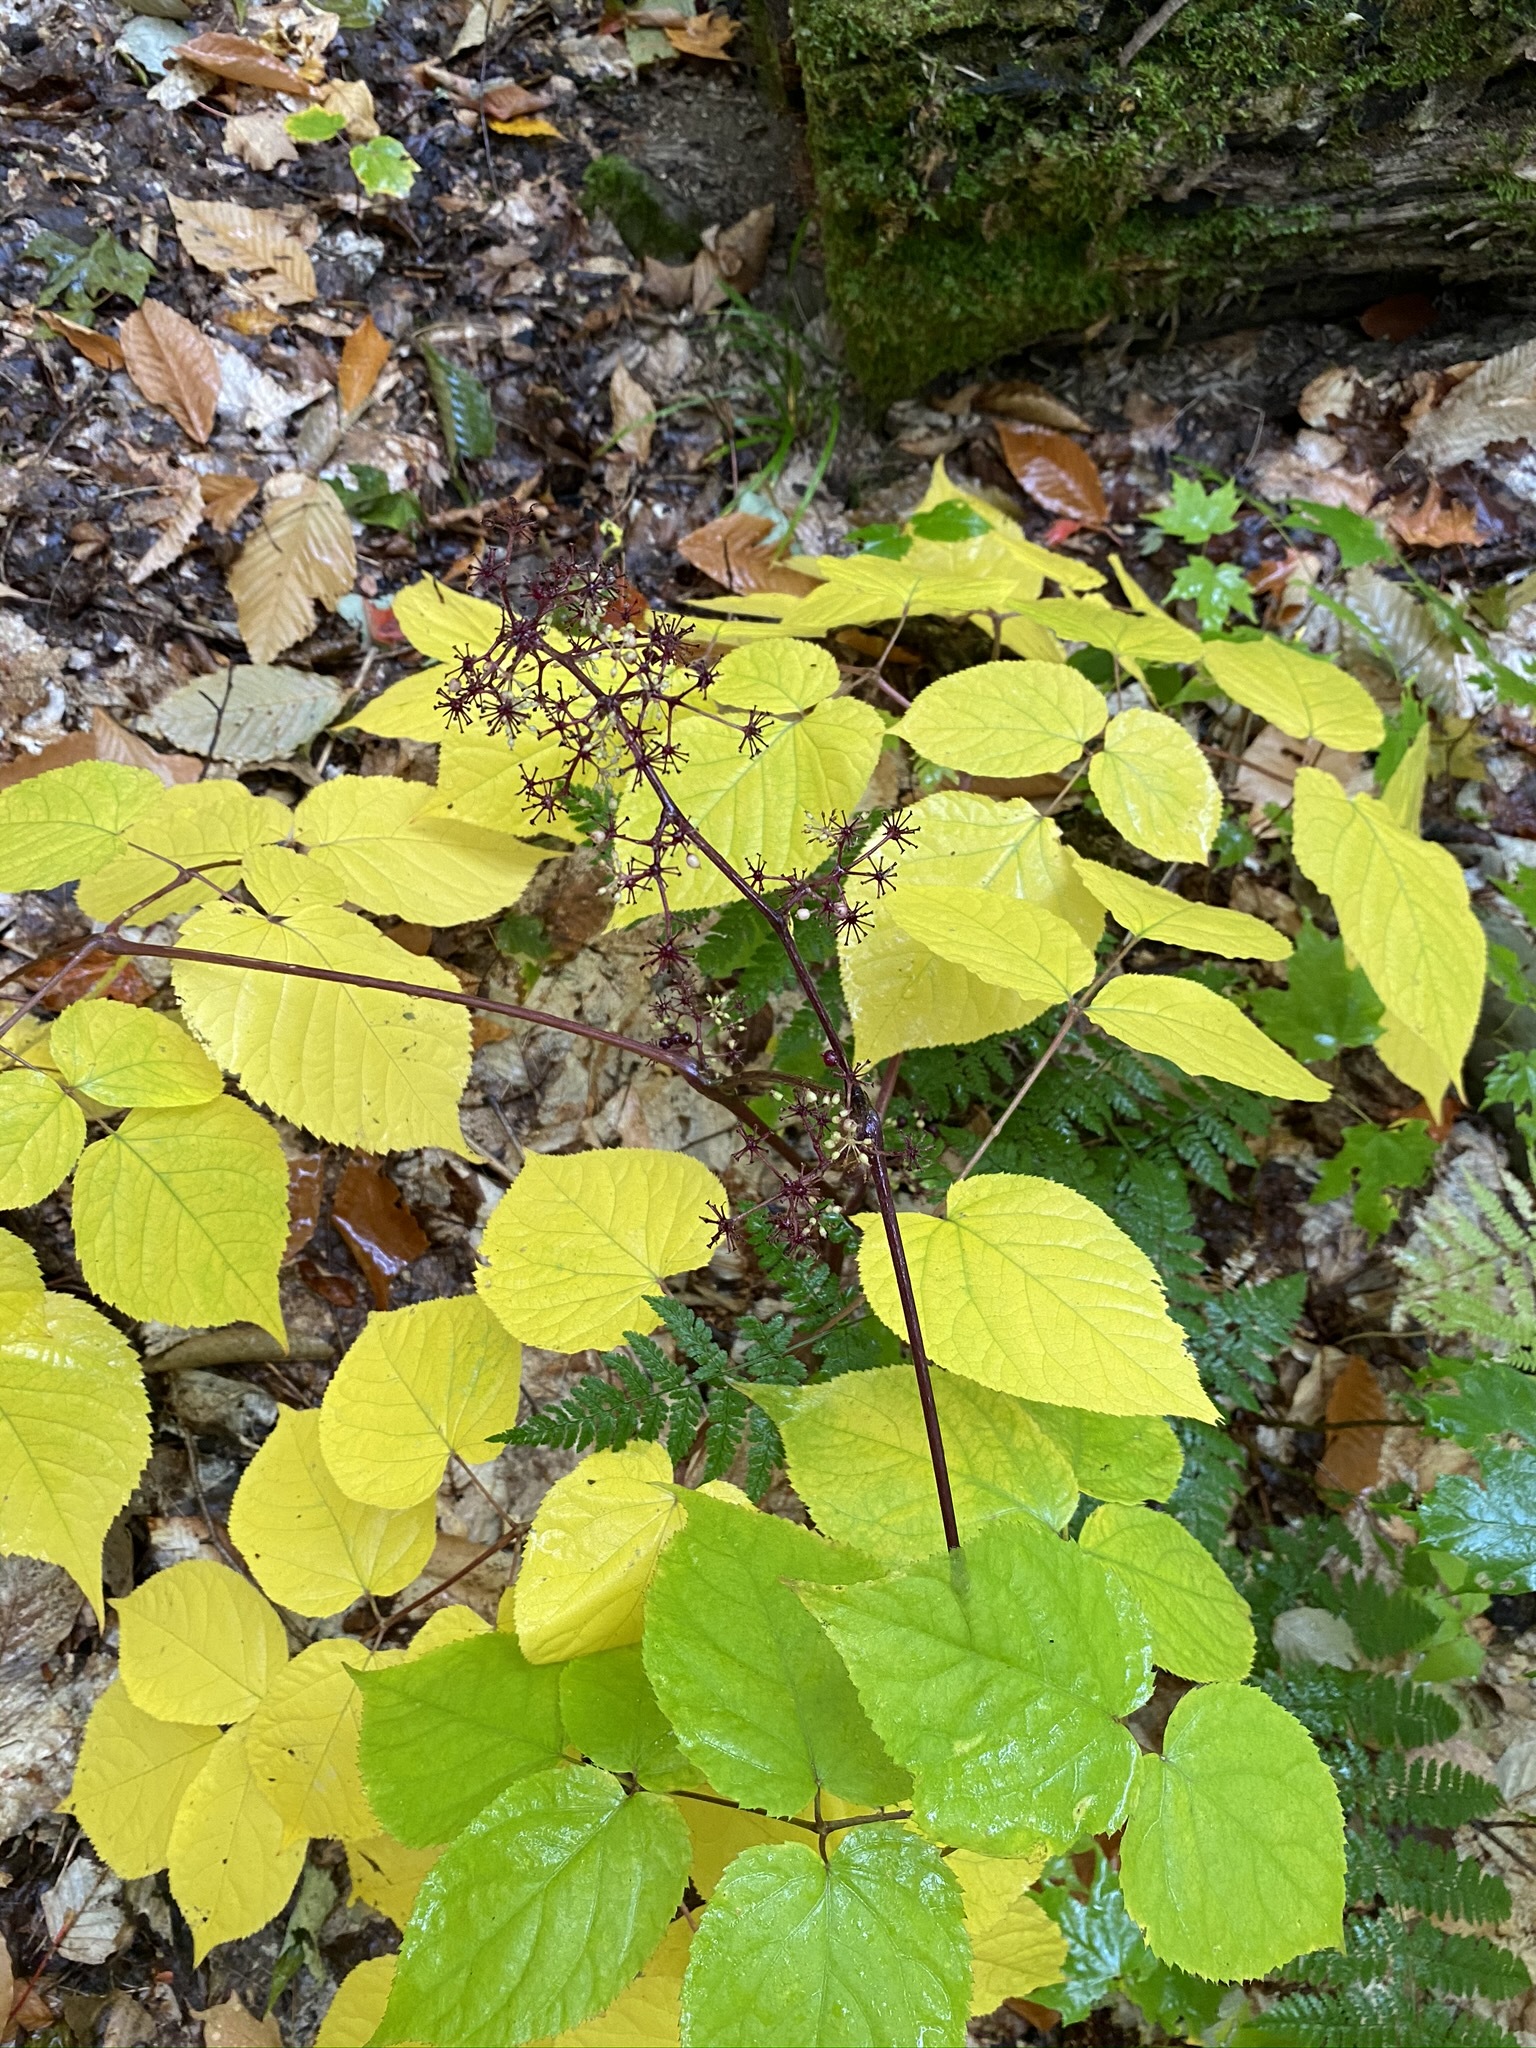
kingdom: Plantae
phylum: Tracheophyta
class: Magnoliopsida
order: Apiales
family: Araliaceae
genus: Aralia
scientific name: Aralia racemosa
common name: American-spikenard
